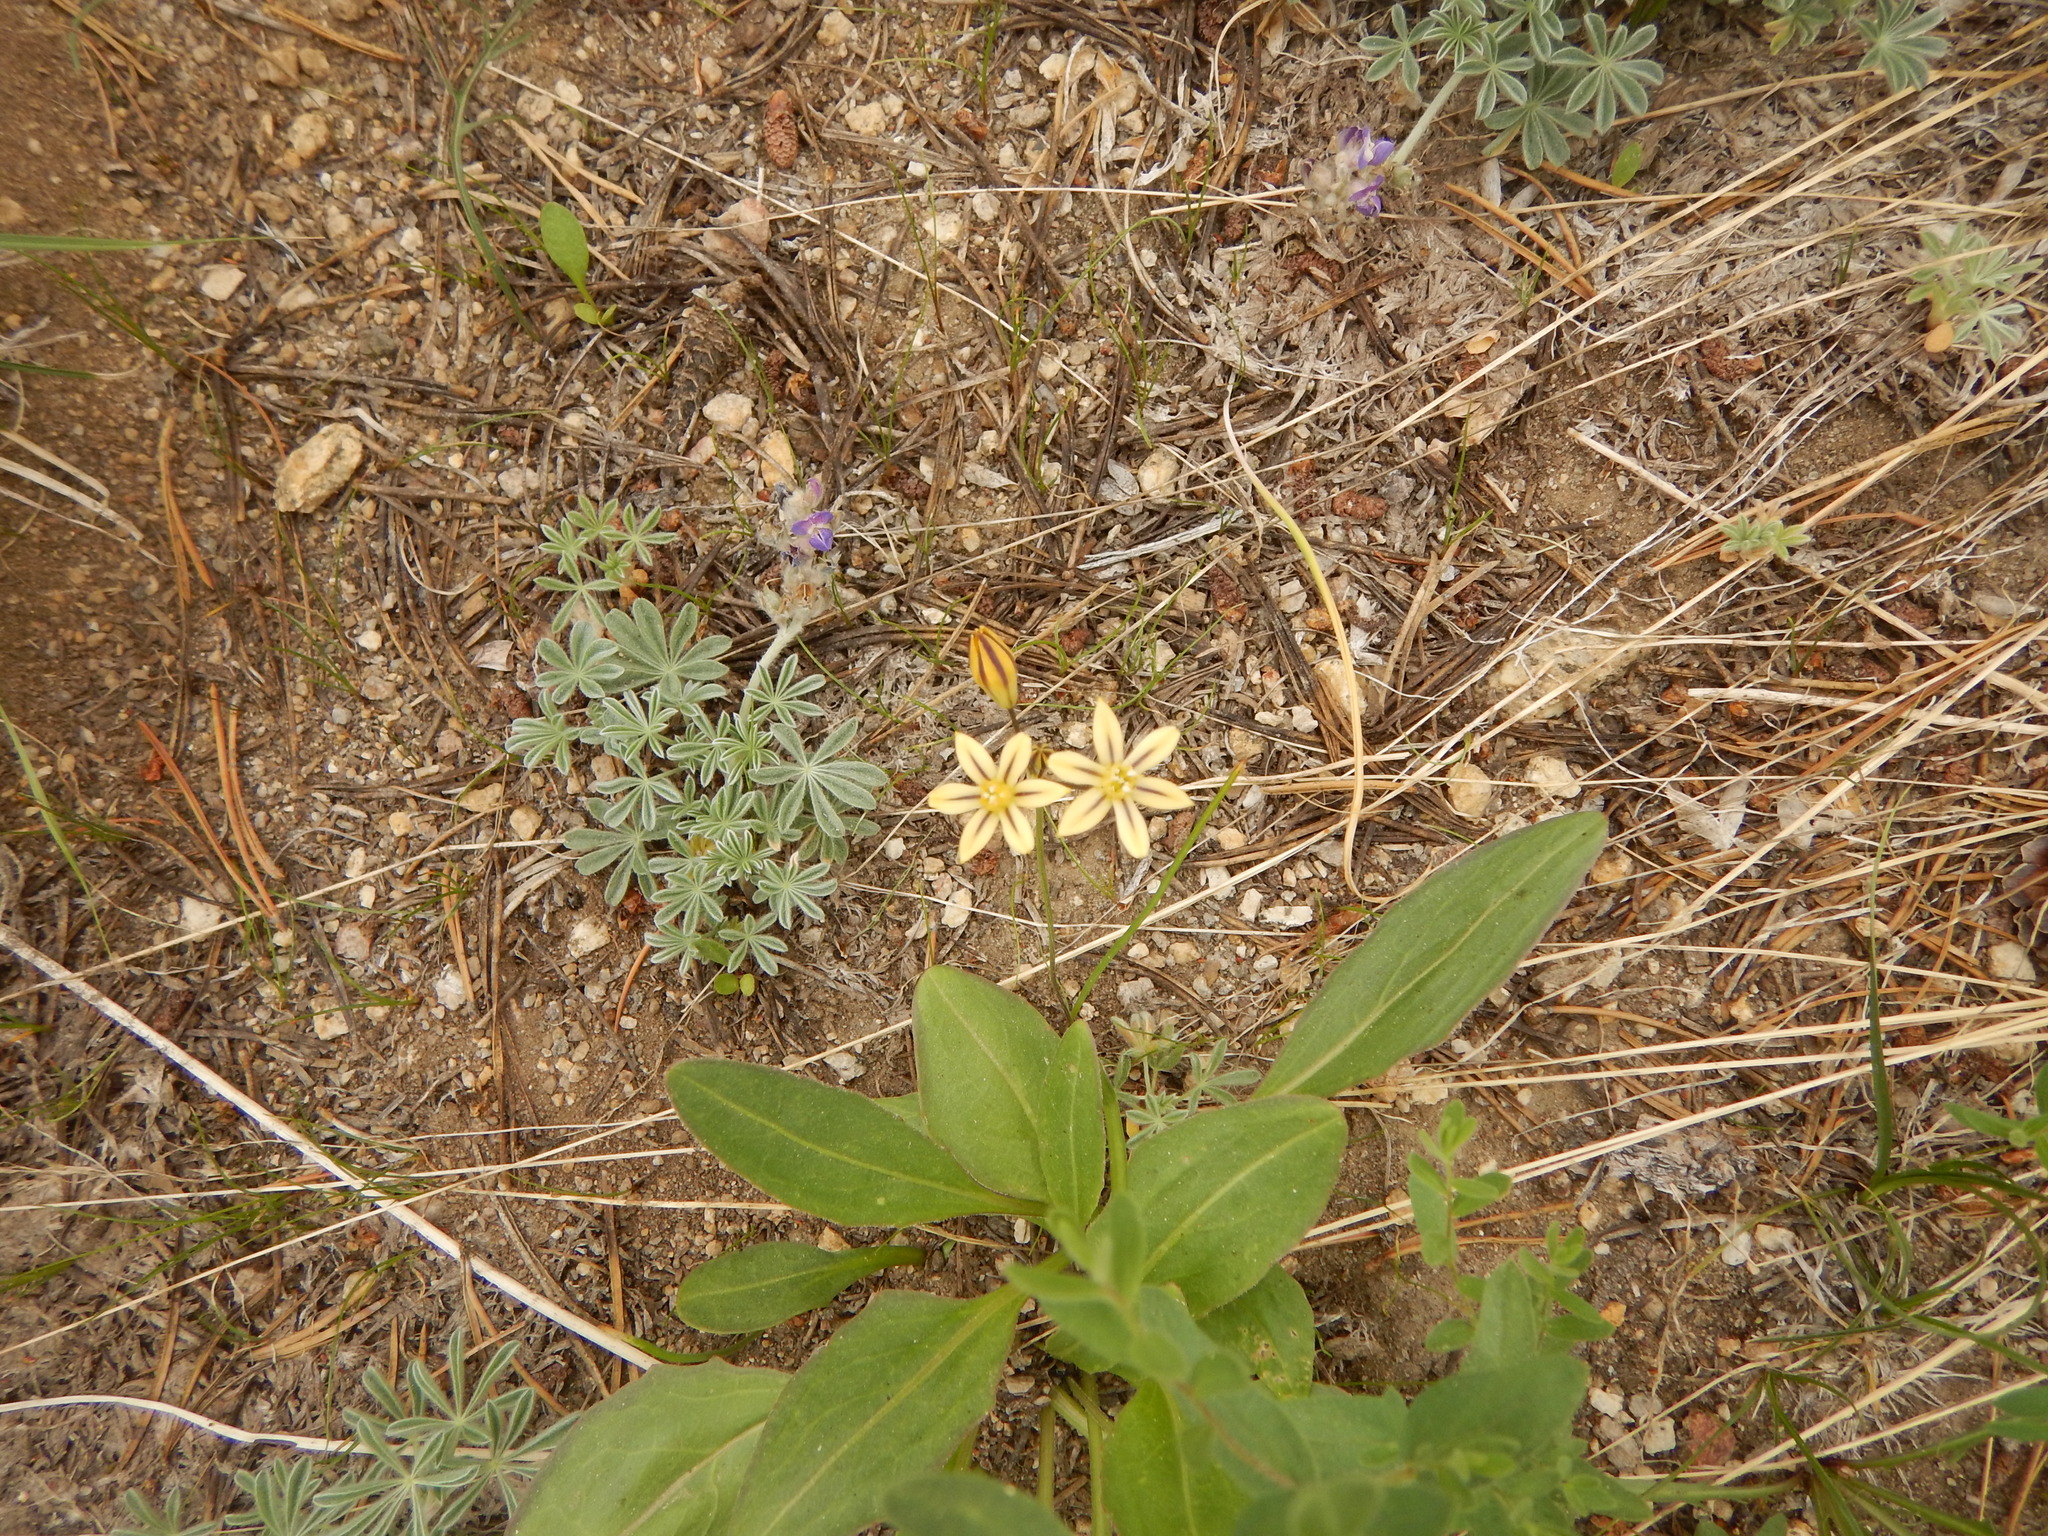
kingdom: Plantae
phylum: Tracheophyta
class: Liliopsida
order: Asparagales
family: Asparagaceae
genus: Triteleia
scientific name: Triteleia ixioides
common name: Yellow-brodiaea
